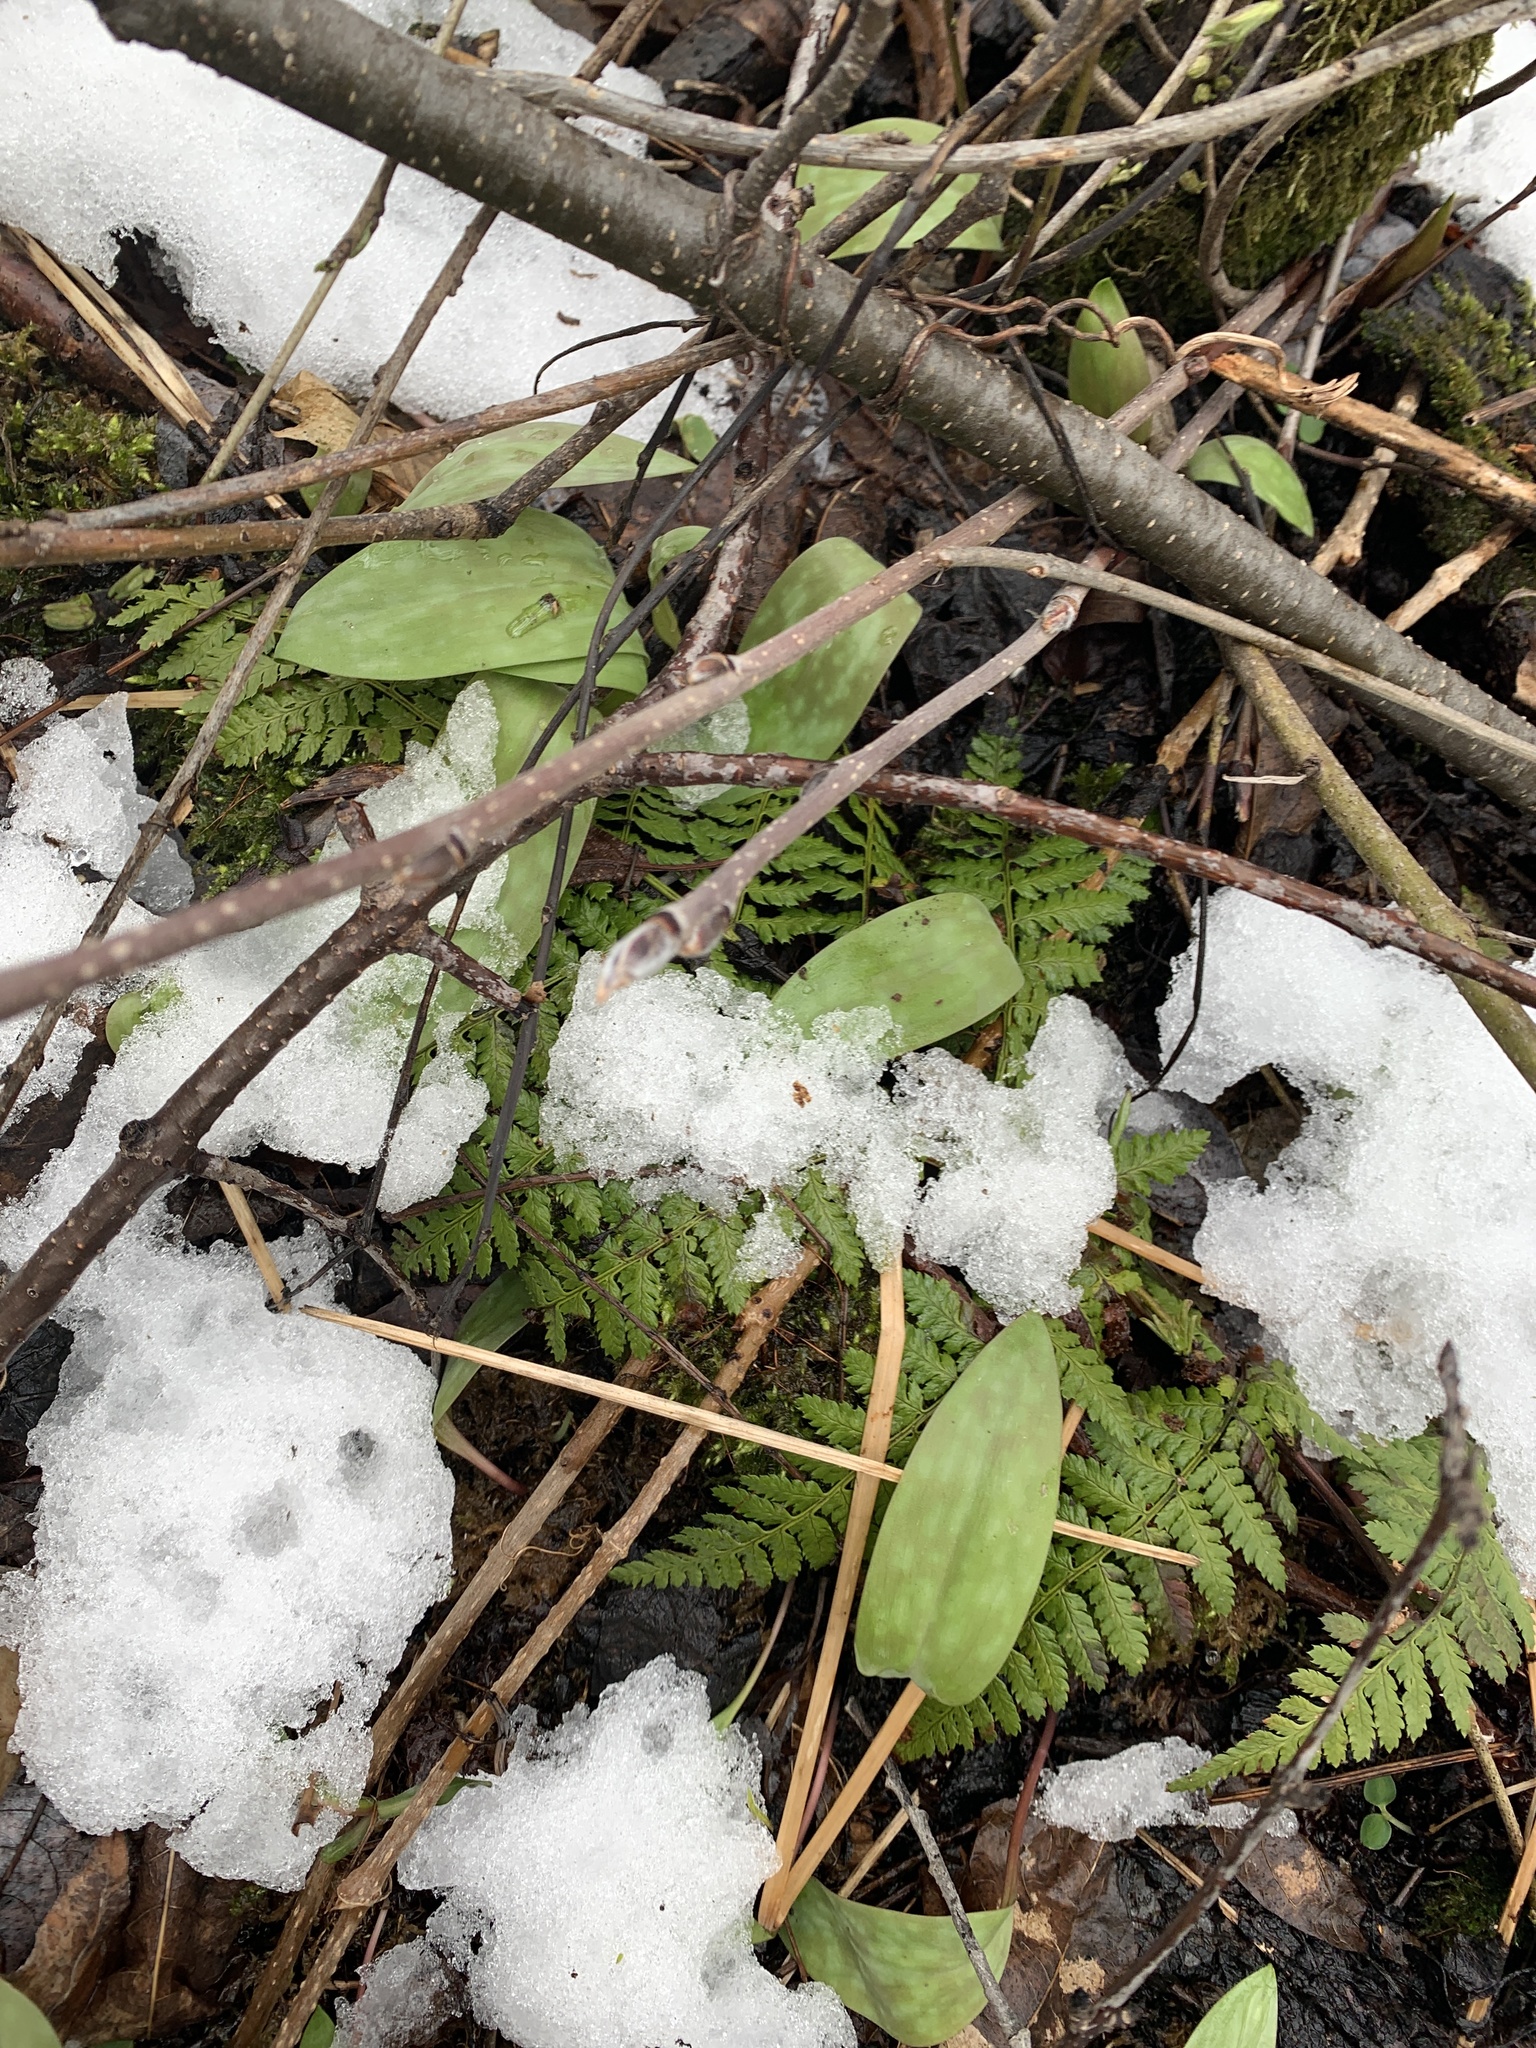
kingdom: Plantae
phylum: Tracheophyta
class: Liliopsida
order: Liliales
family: Liliaceae
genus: Erythronium
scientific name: Erythronium americanum
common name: Yellow adder's-tongue
